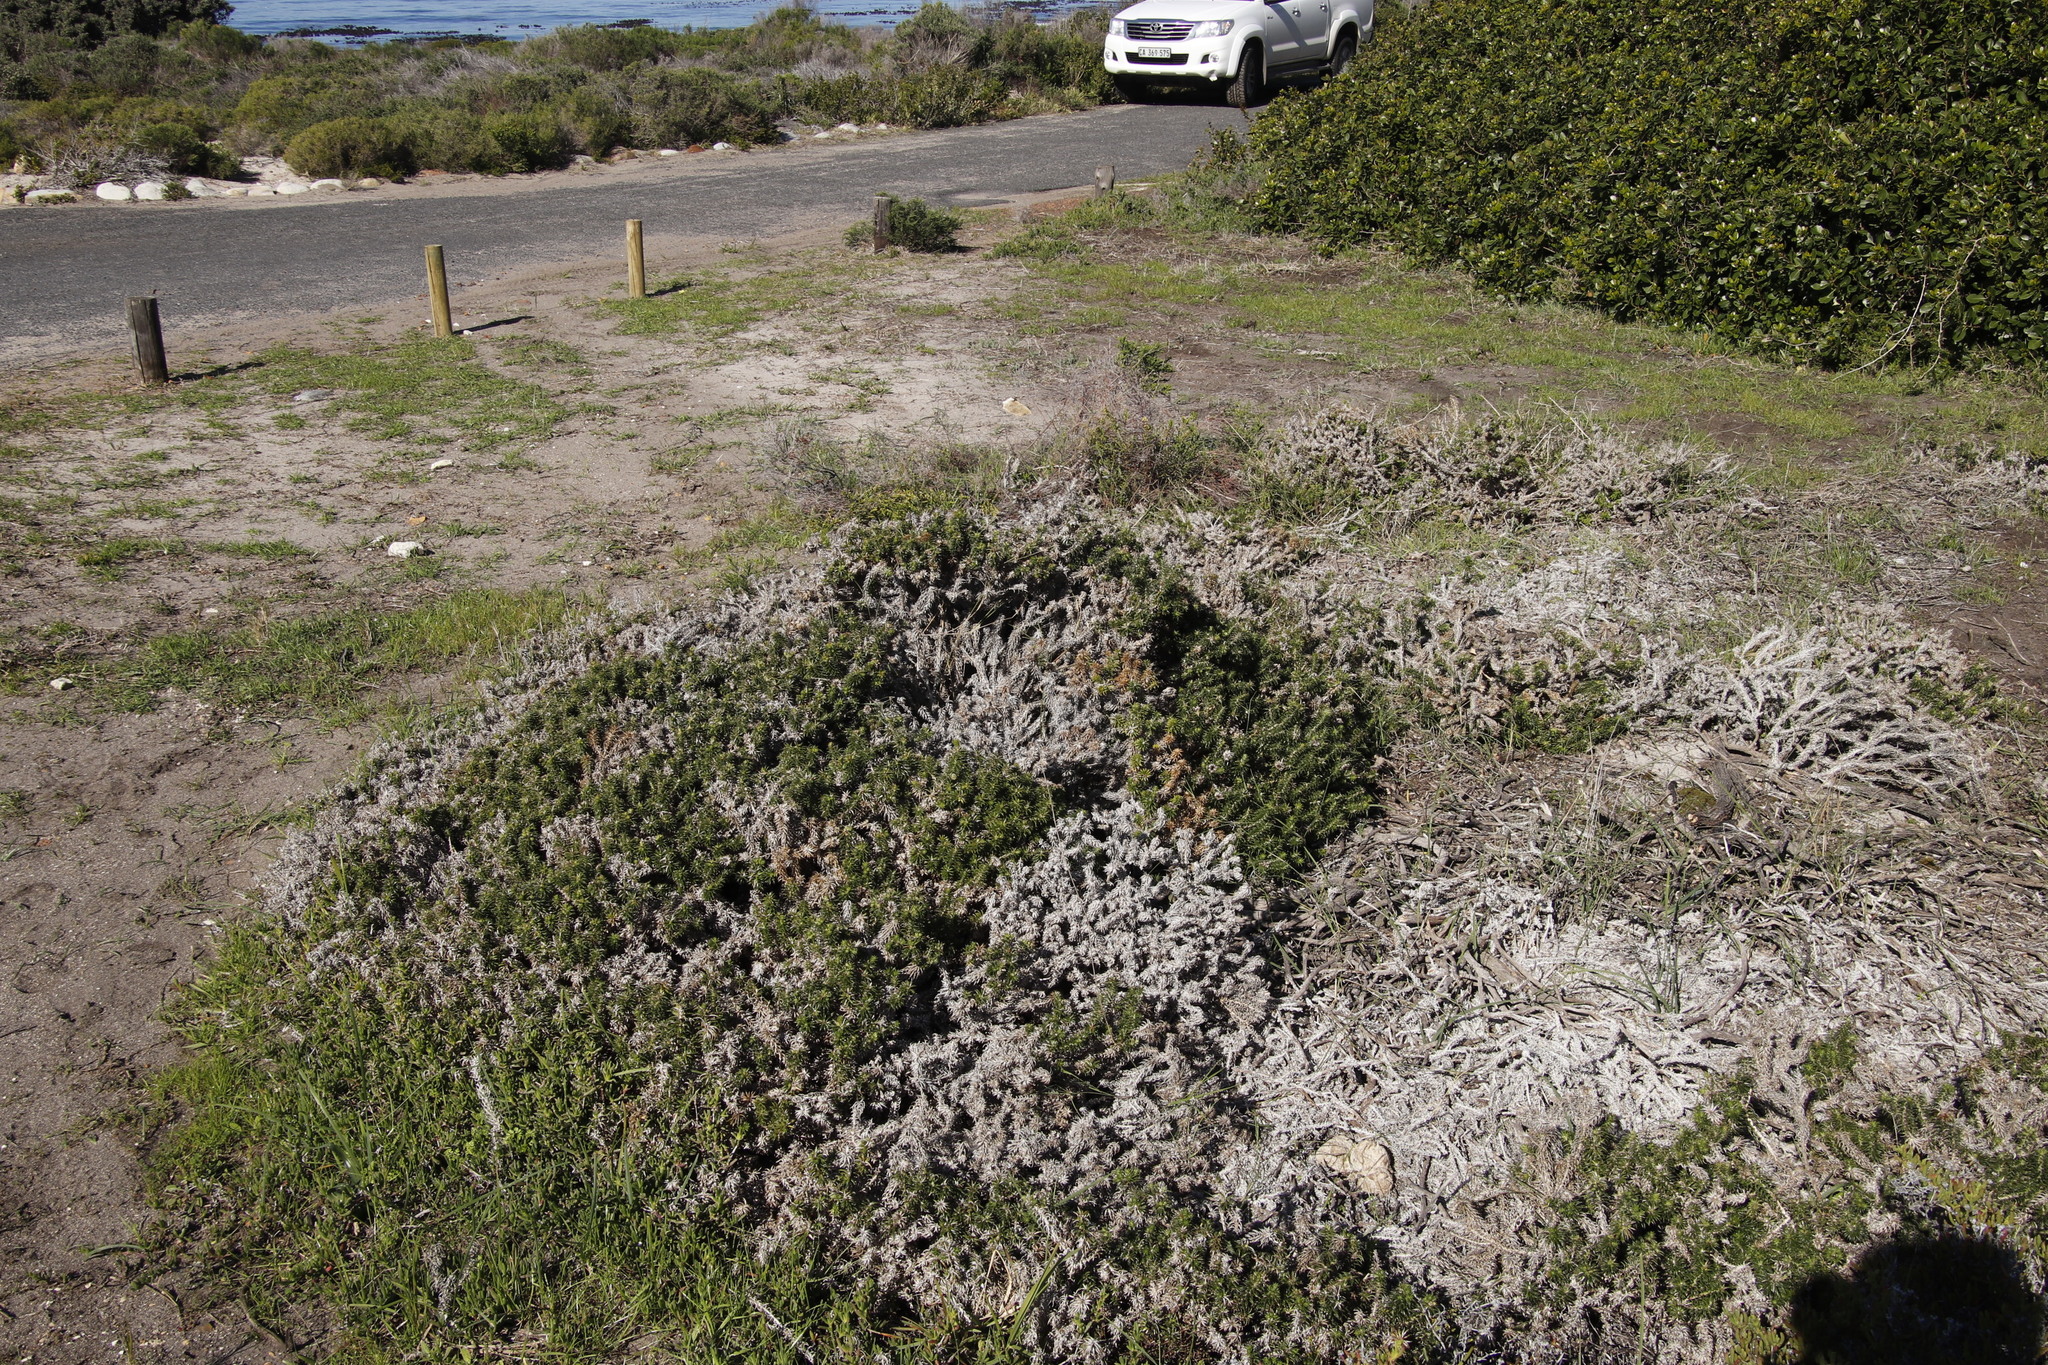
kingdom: Plantae
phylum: Tracheophyta
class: Magnoliopsida
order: Asterales
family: Asteraceae
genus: Cullumia
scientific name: Cullumia squarrosa
